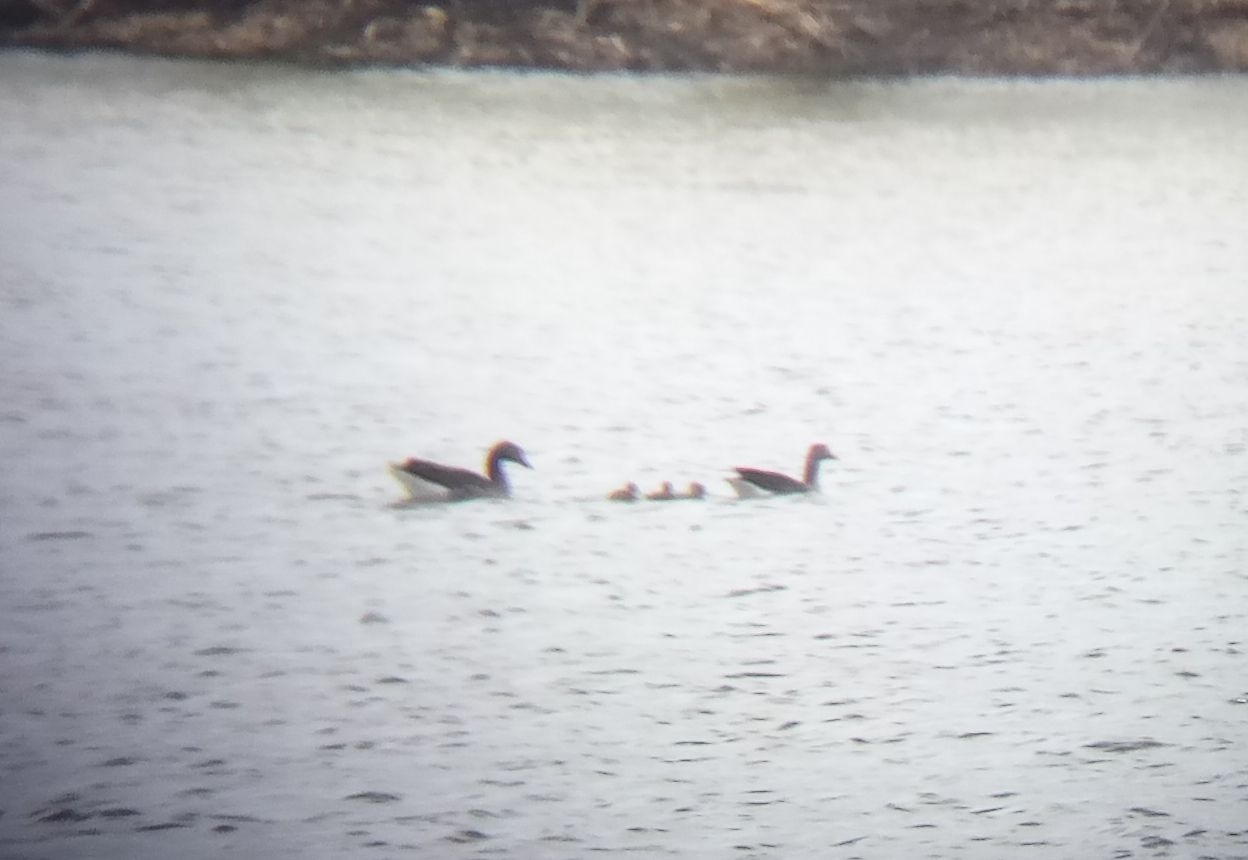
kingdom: Animalia
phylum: Chordata
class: Aves
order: Anseriformes
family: Anatidae
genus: Anser
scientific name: Anser anser
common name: Greylag goose
